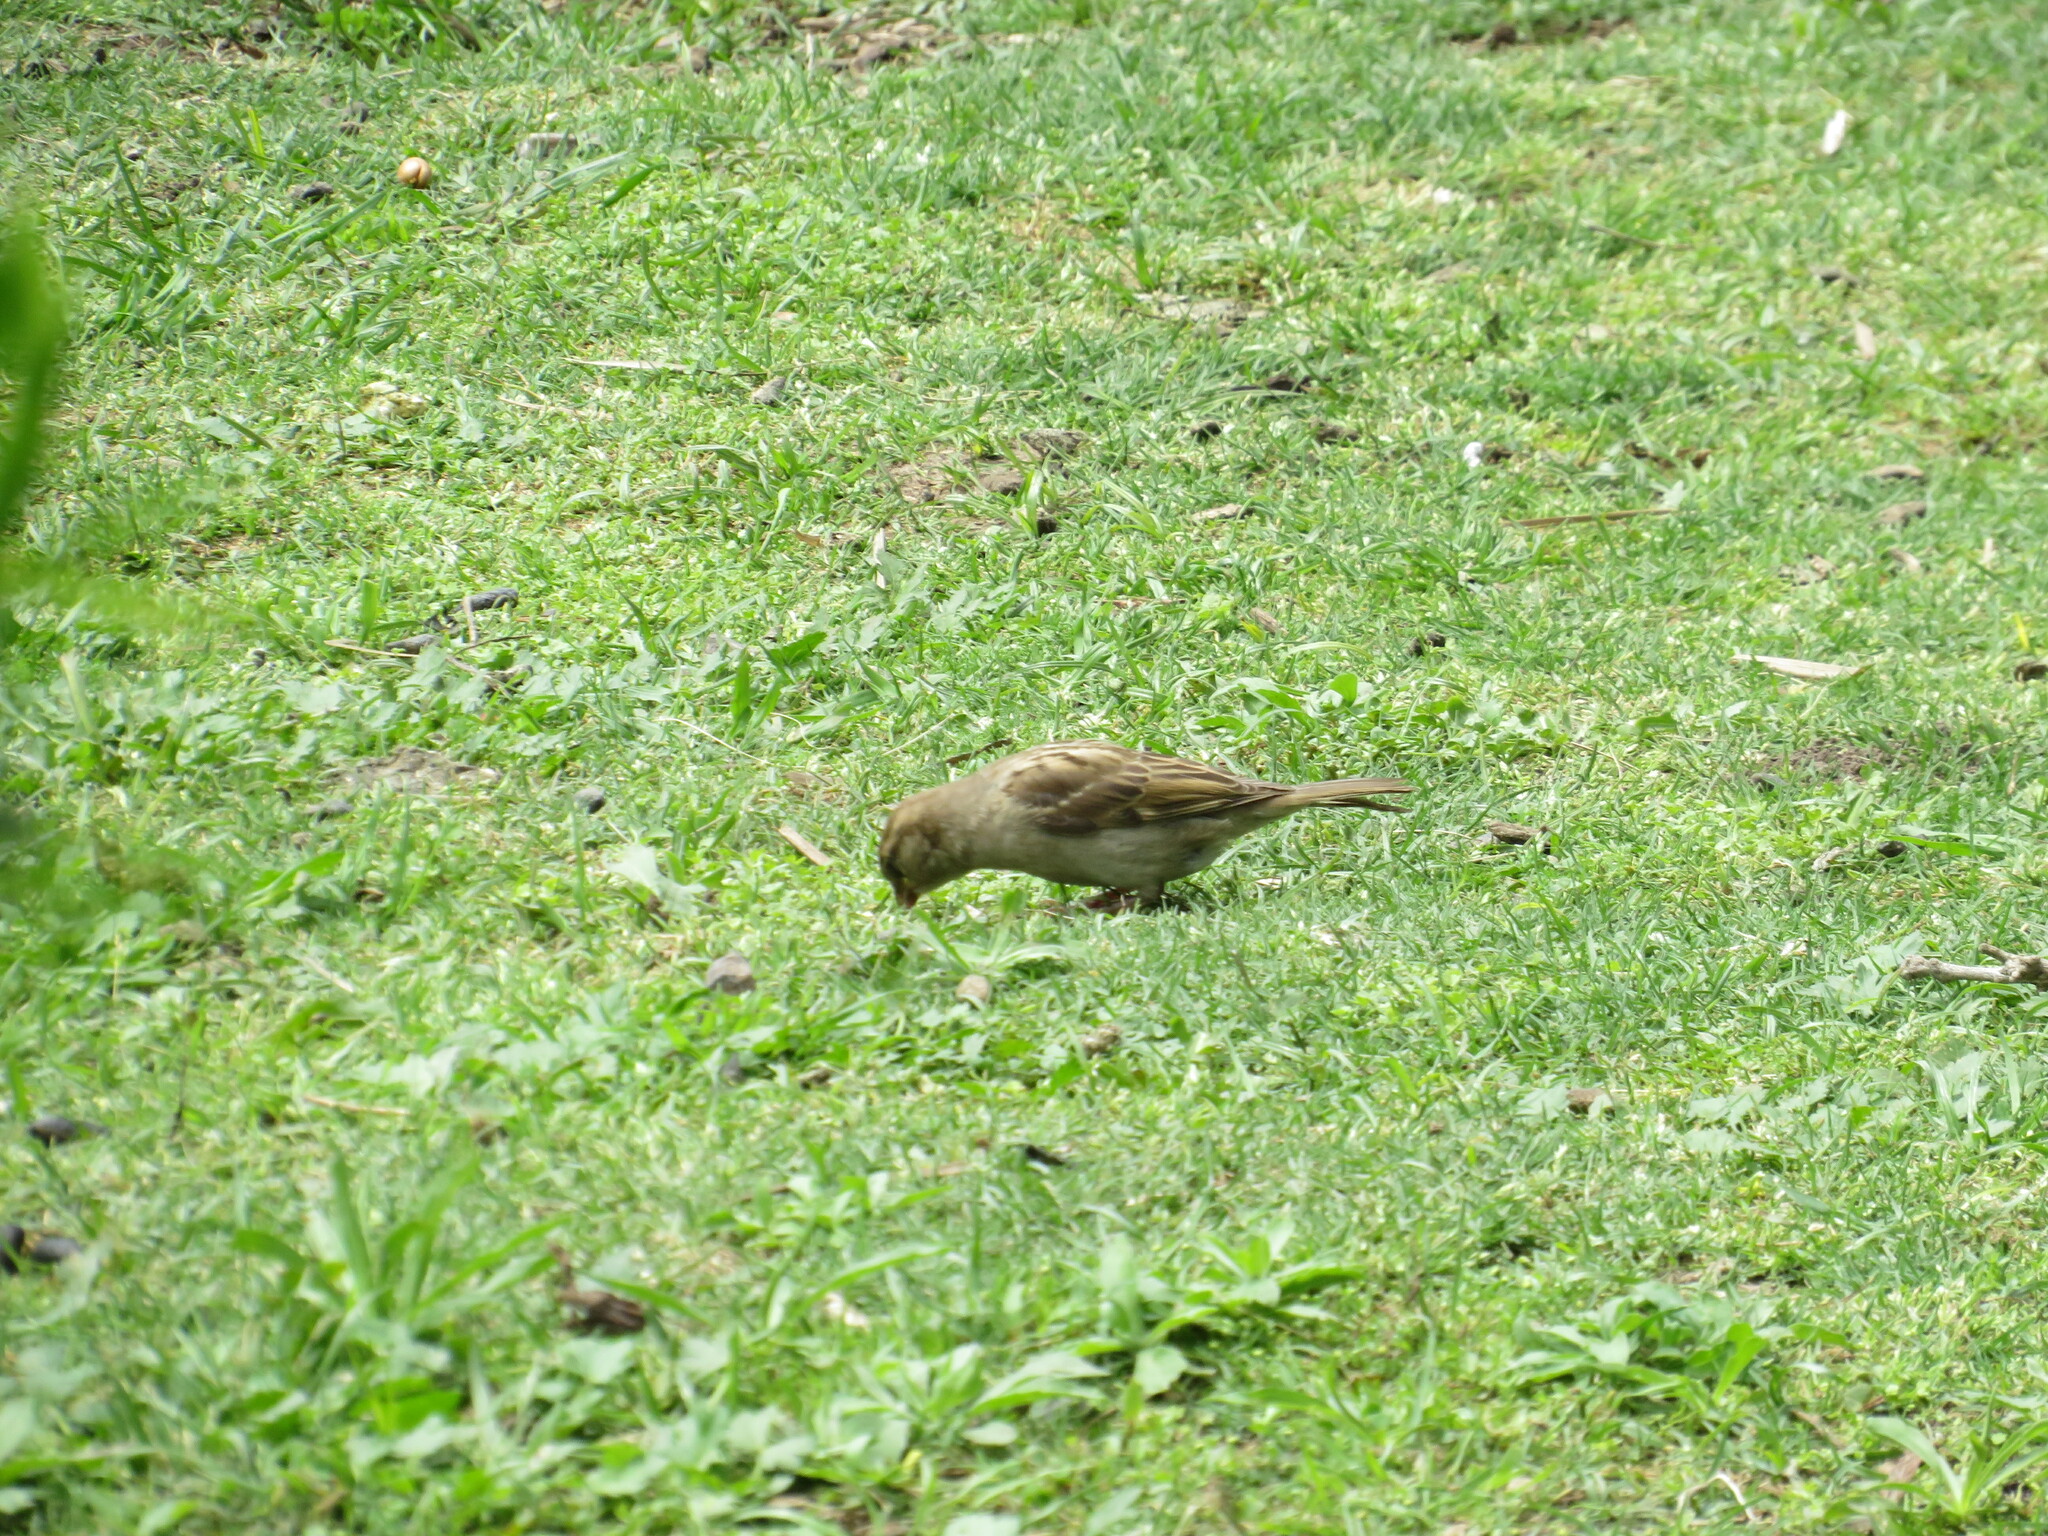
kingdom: Animalia
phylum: Chordata
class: Aves
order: Passeriformes
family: Passeridae
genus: Passer
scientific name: Passer domesticus
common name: House sparrow
